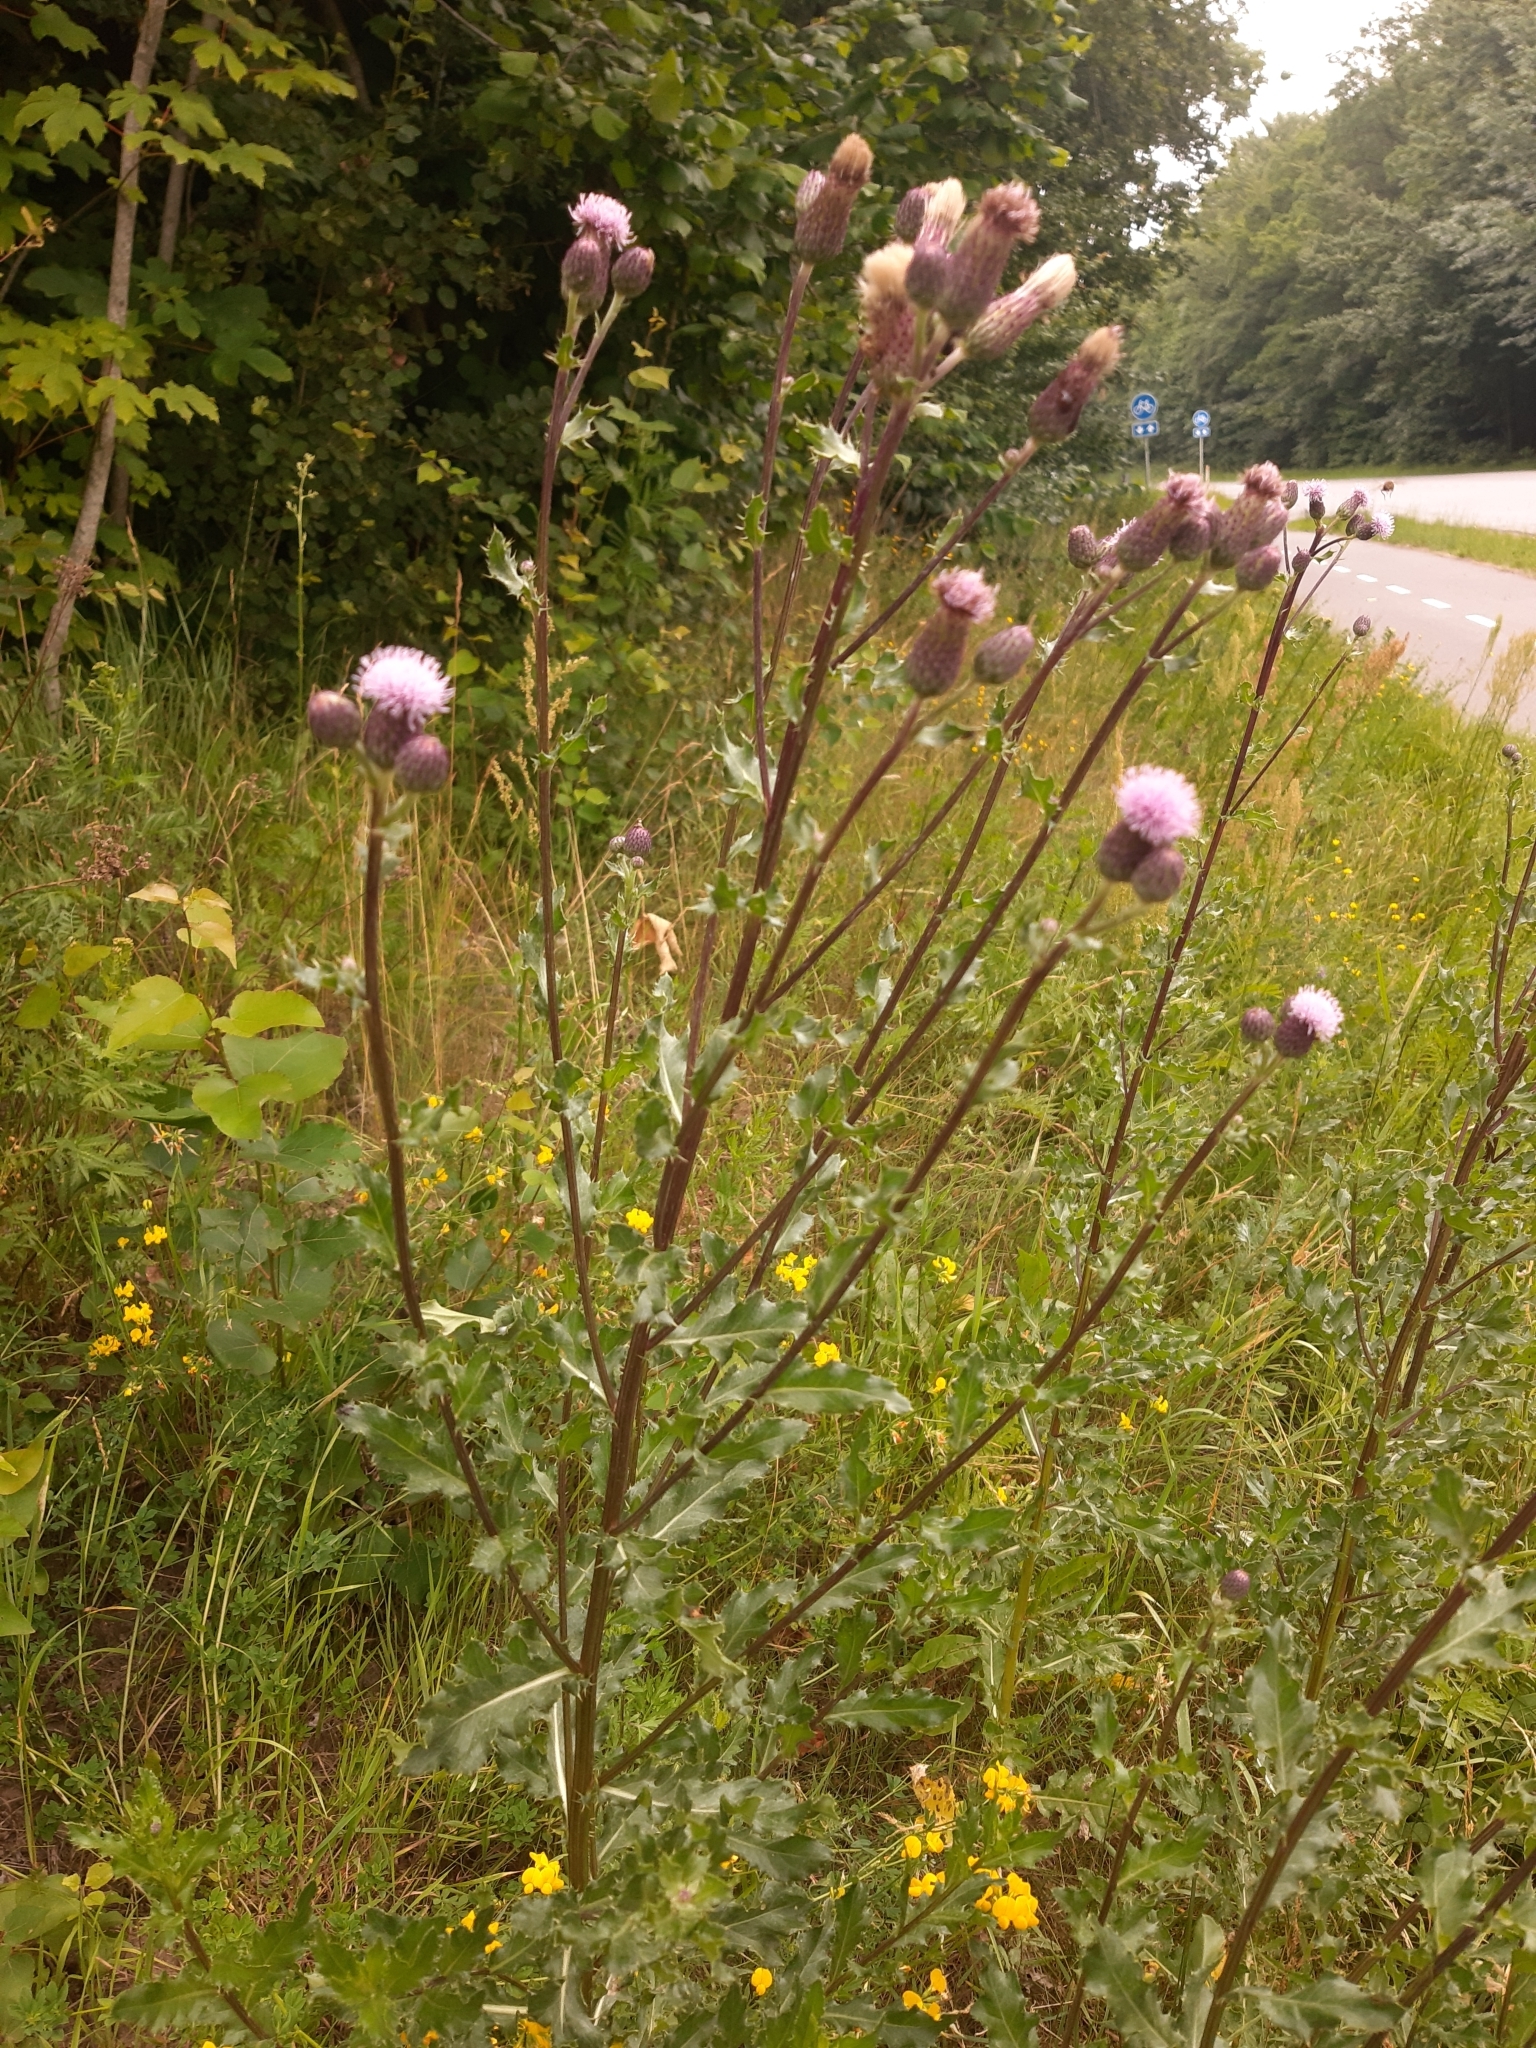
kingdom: Plantae
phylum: Tracheophyta
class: Magnoliopsida
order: Asterales
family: Asteraceae
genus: Cirsium
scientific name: Cirsium arvense
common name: Creeping thistle
